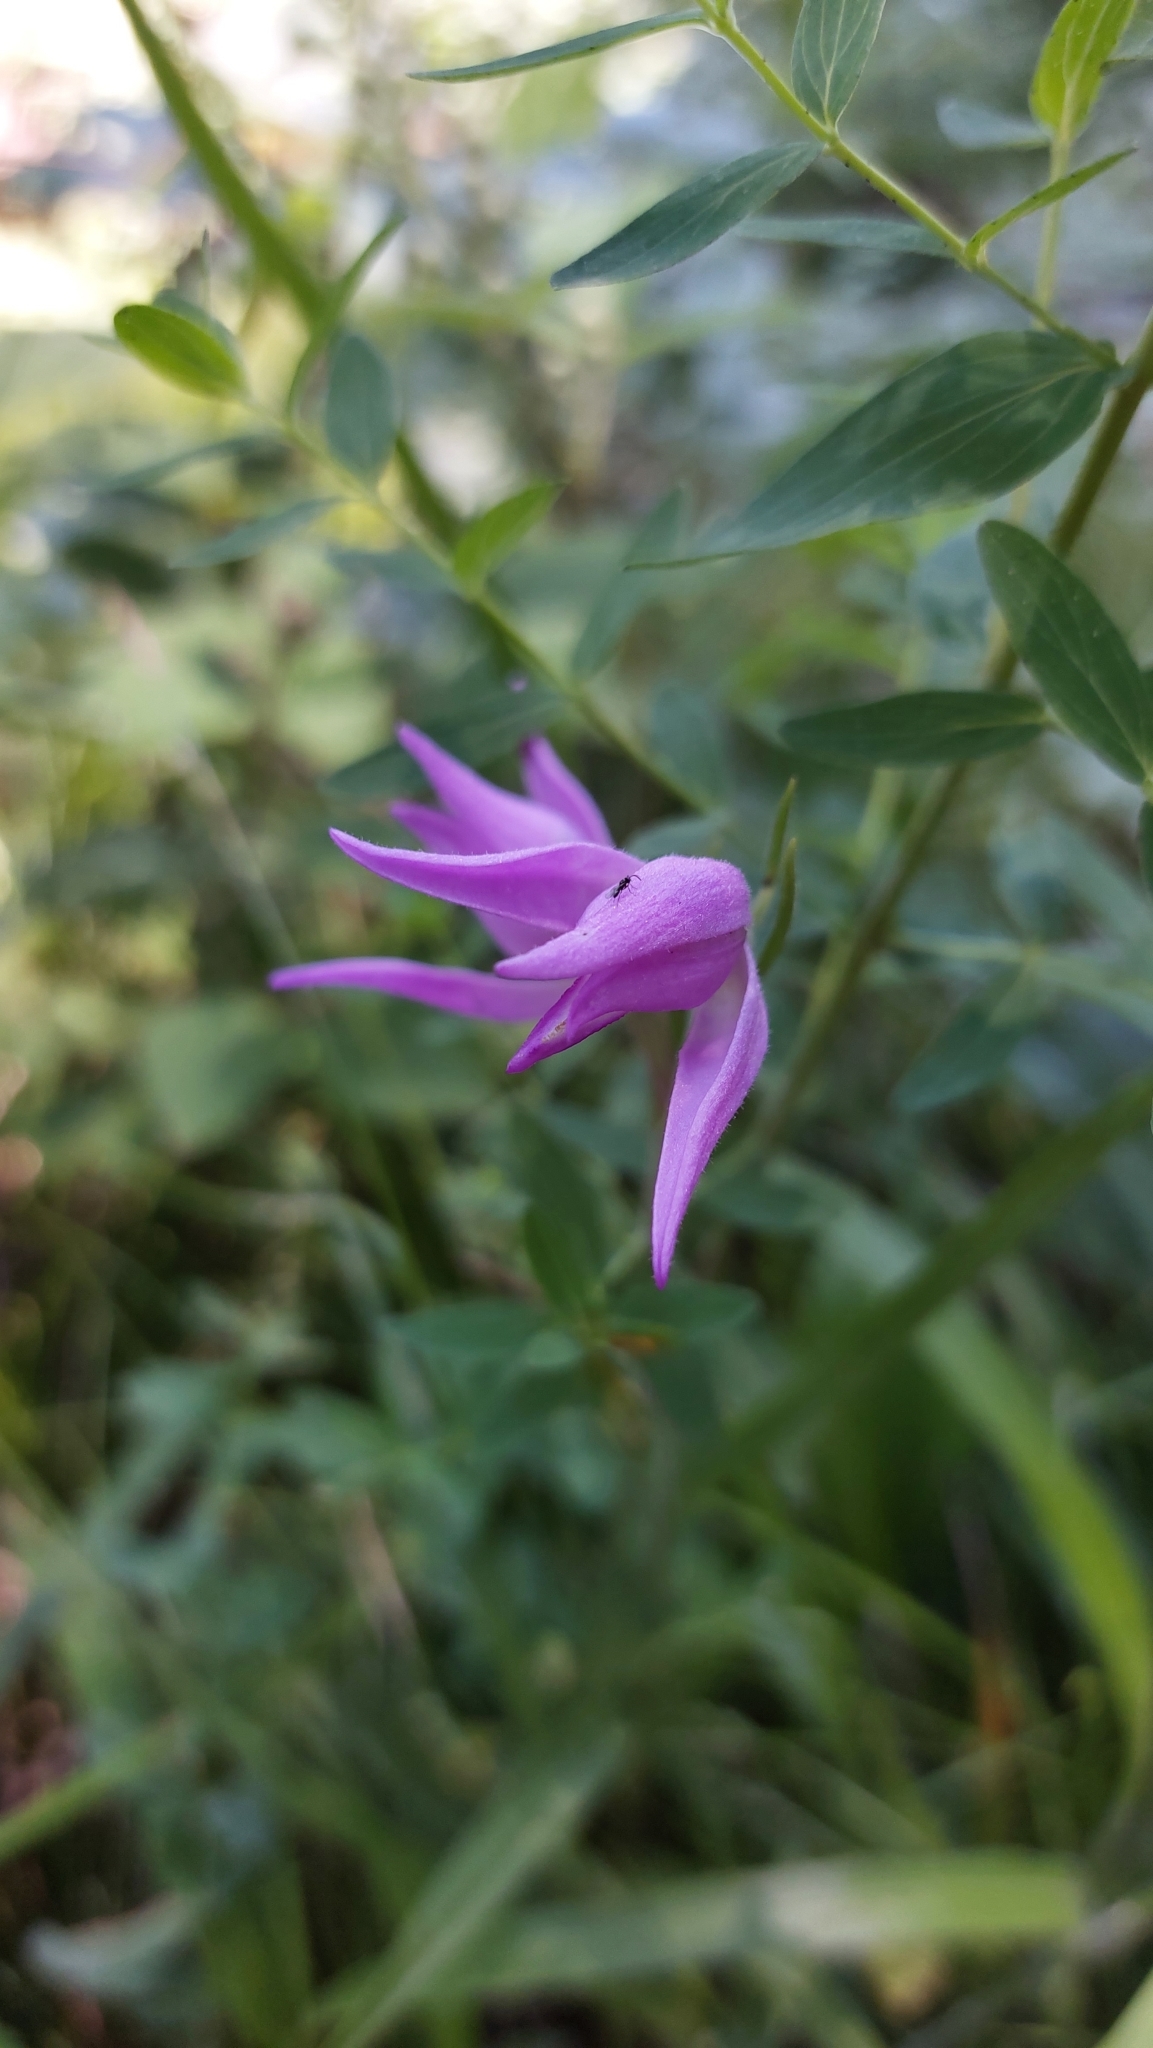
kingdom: Plantae
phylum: Tracheophyta
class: Liliopsida
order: Asparagales
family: Orchidaceae
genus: Cephalanthera
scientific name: Cephalanthera rubra
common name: Red helleborine
